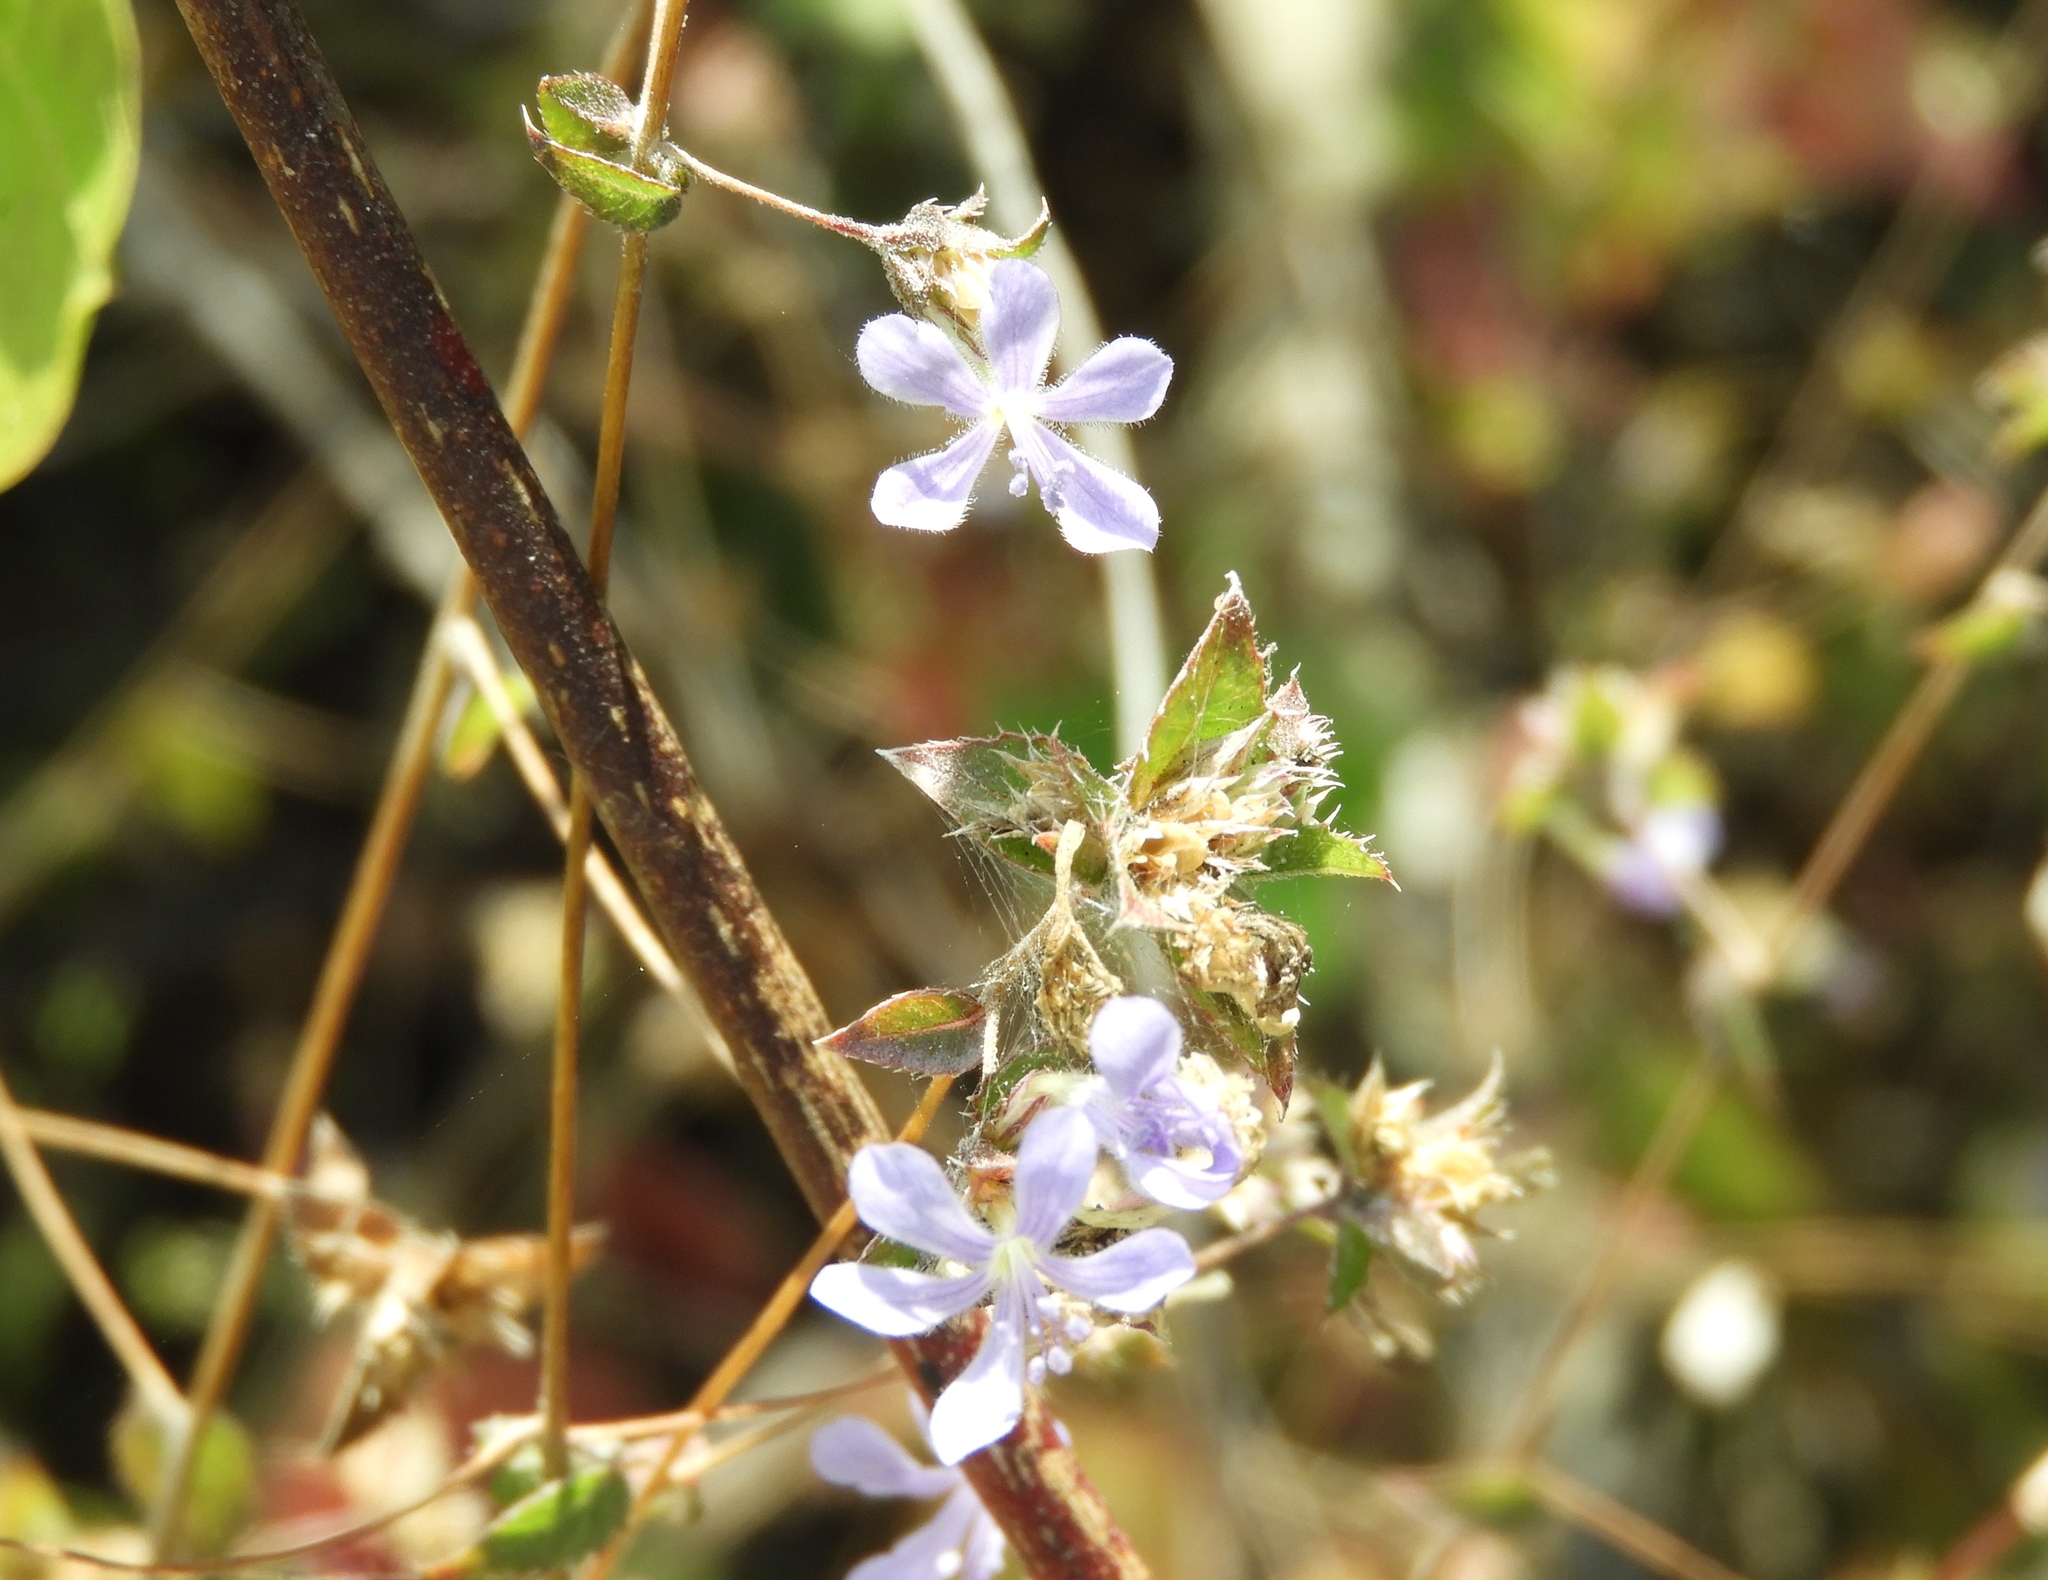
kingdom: Plantae
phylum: Tracheophyta
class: Magnoliopsida
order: Ericales
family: Polemoniaceae
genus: Loeselia
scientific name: Loeselia ciliata
